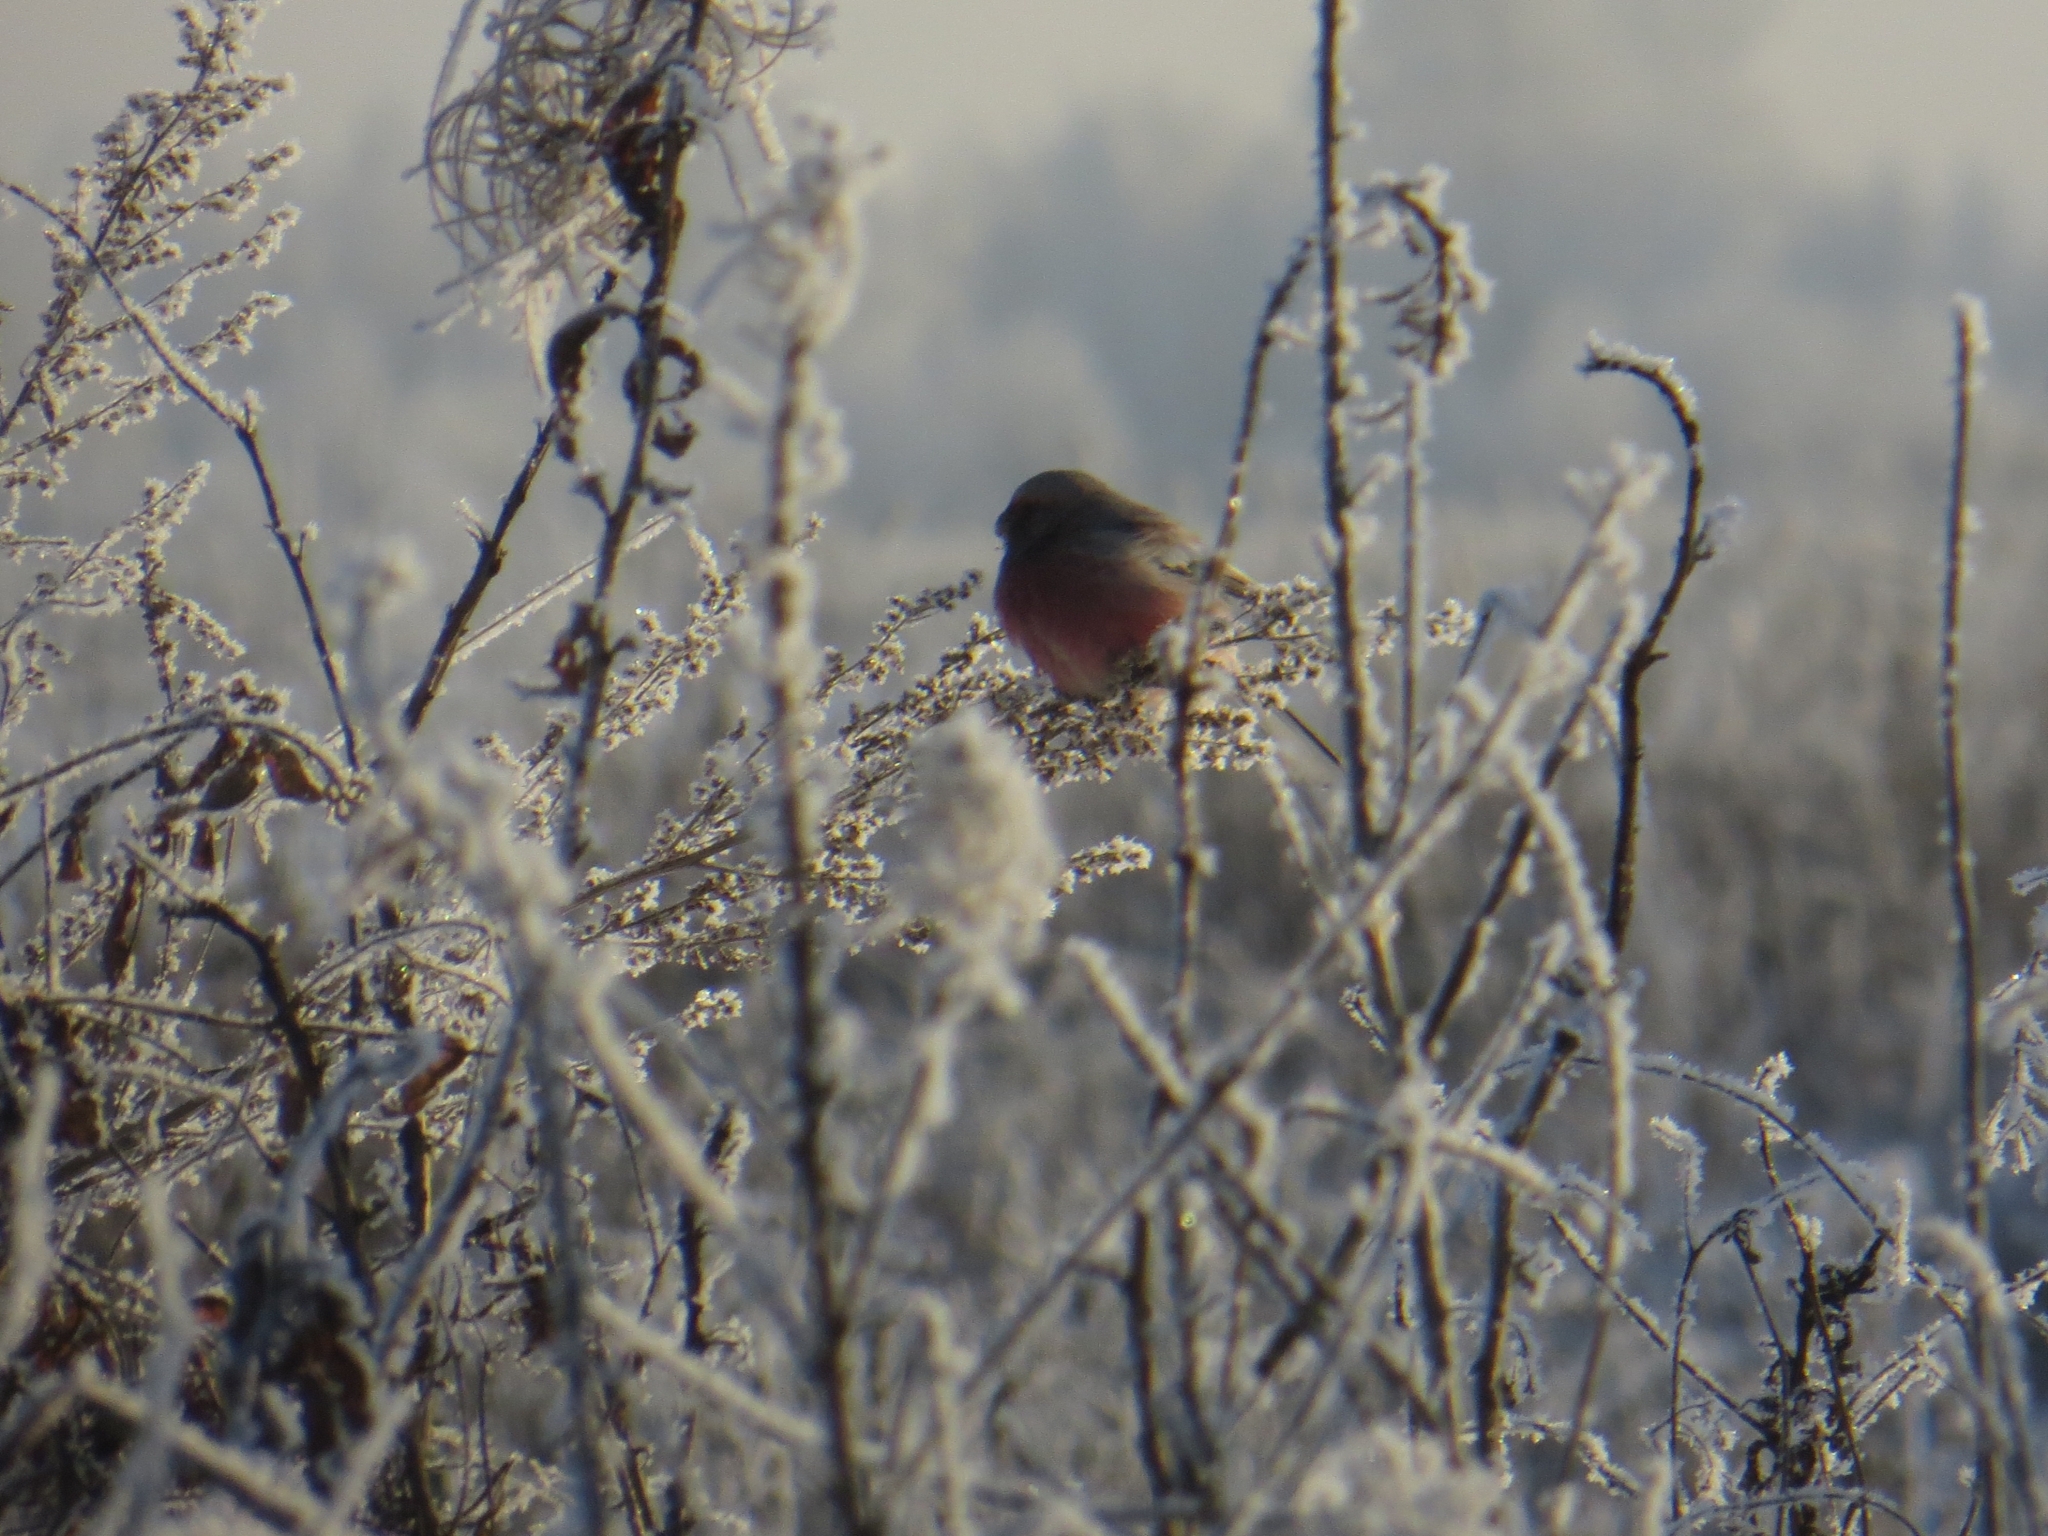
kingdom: Animalia
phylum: Chordata
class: Aves
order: Passeriformes
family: Fringillidae
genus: Carpodacus
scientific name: Carpodacus sibiricus
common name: Long-tailed rosefinch
